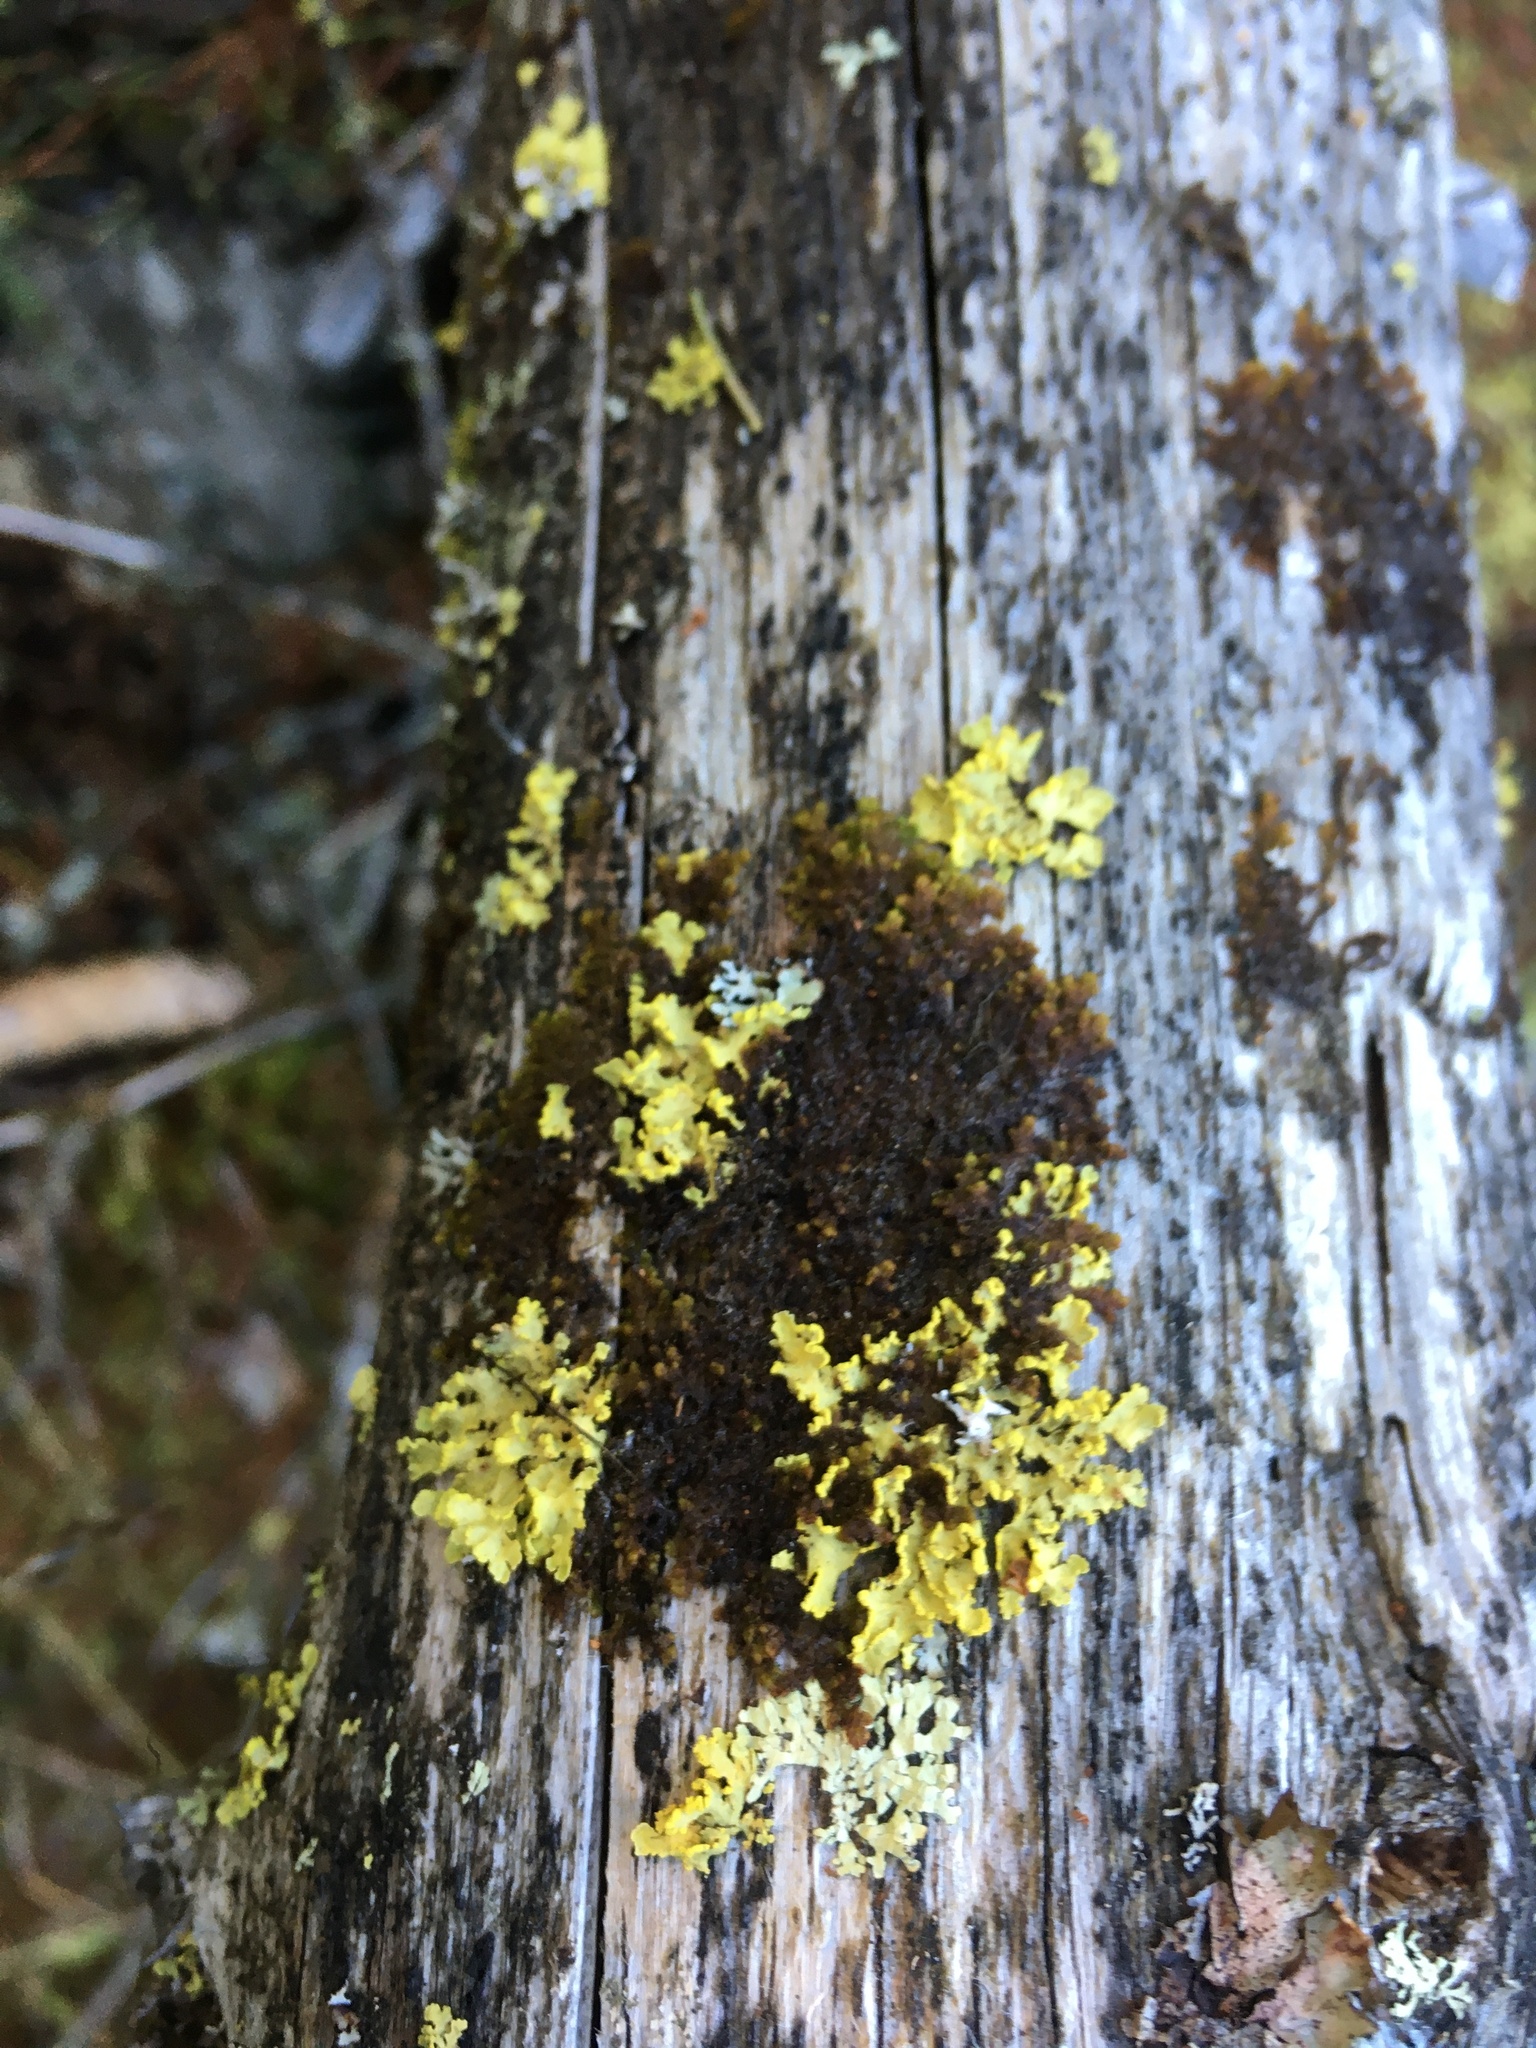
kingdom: Fungi
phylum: Ascomycota
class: Lecanoromycetes
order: Lecanorales
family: Parmeliaceae
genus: Vulpicida
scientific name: Vulpicida pinastri
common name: Powdered sunshine lichen
